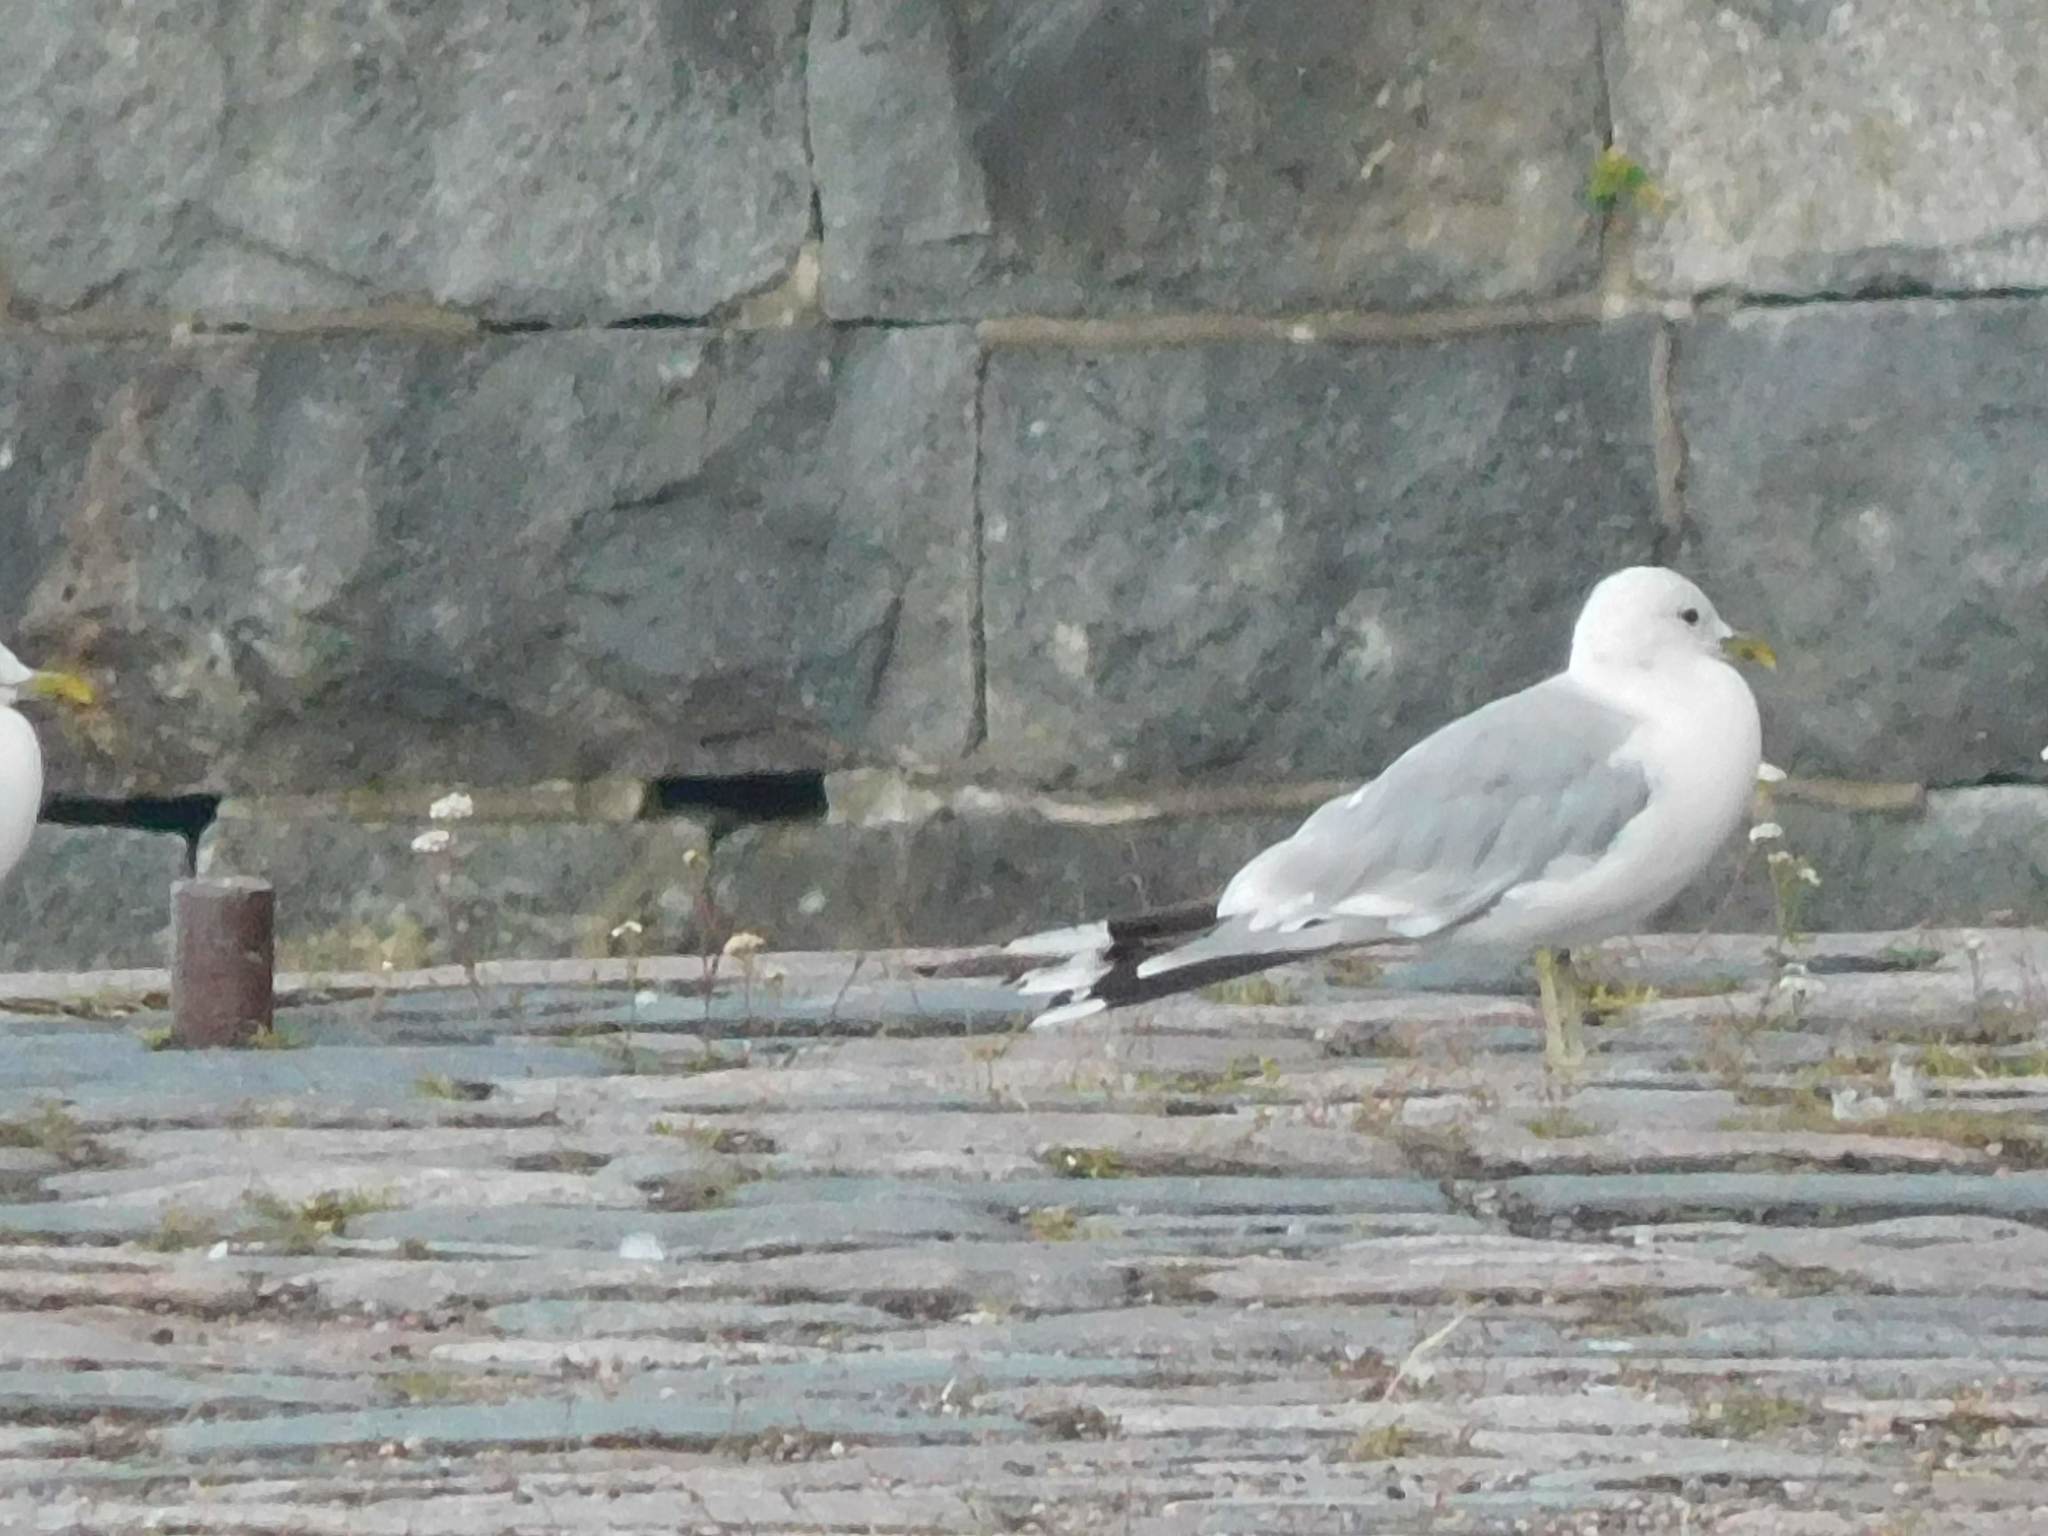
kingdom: Animalia
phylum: Chordata
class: Aves
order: Charadriiformes
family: Laridae
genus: Larus
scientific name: Larus canus
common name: Mew gull
